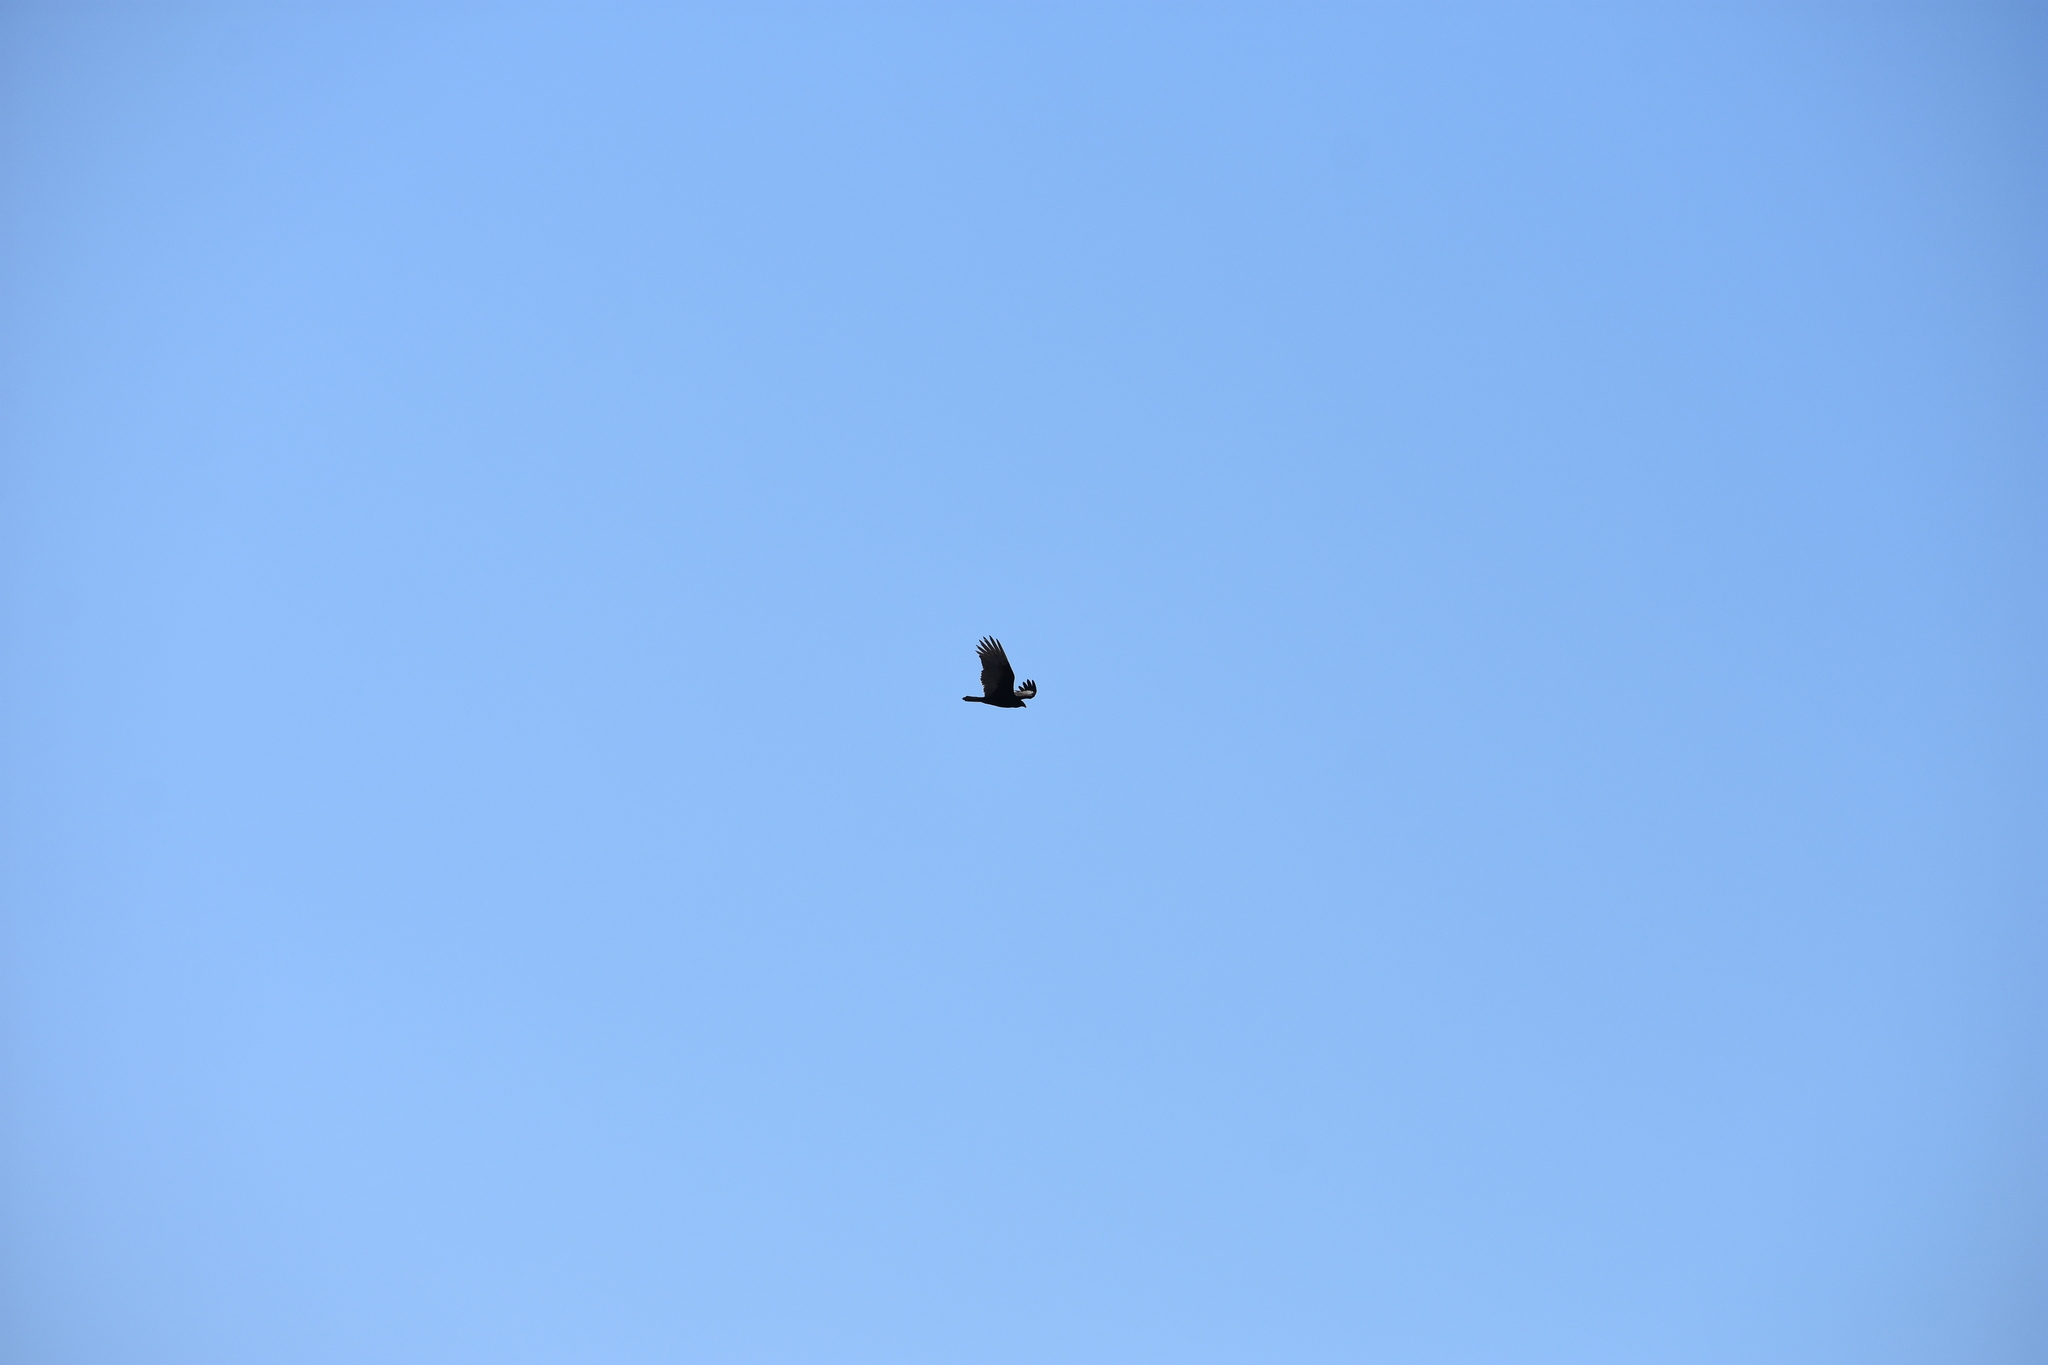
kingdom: Animalia
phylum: Chordata
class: Aves
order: Accipitriformes
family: Cathartidae
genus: Cathartes
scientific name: Cathartes aura
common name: Turkey vulture
